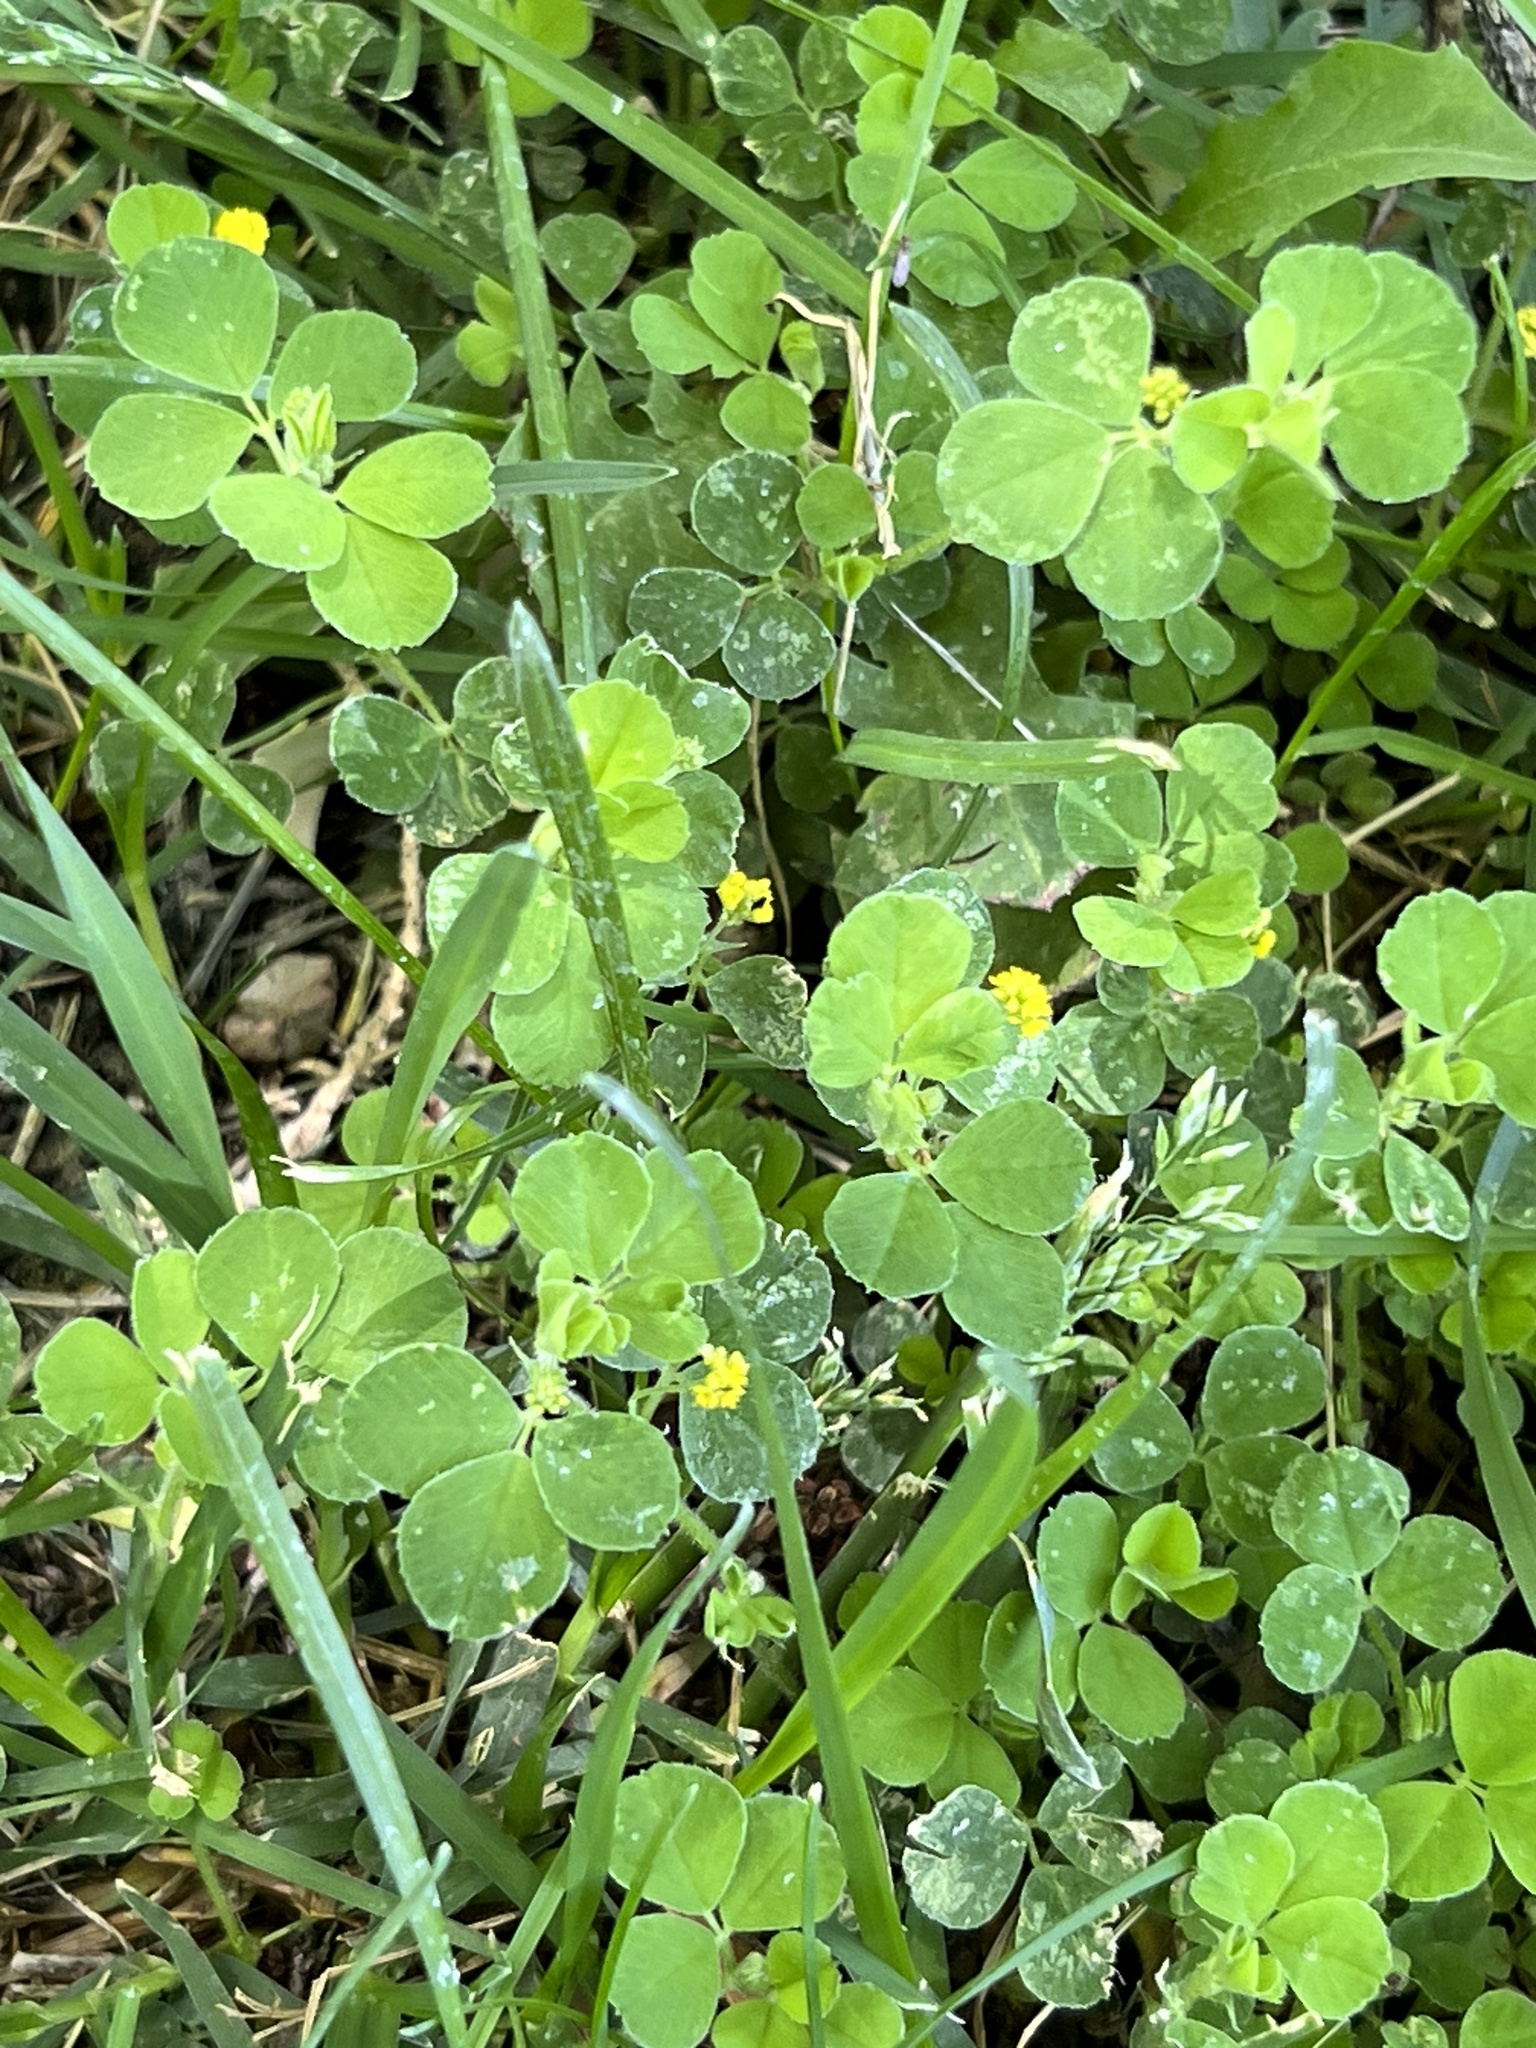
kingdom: Plantae
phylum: Tracheophyta
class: Magnoliopsida
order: Fabales
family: Fabaceae
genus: Medicago
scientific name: Medicago lupulina
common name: Black medick
